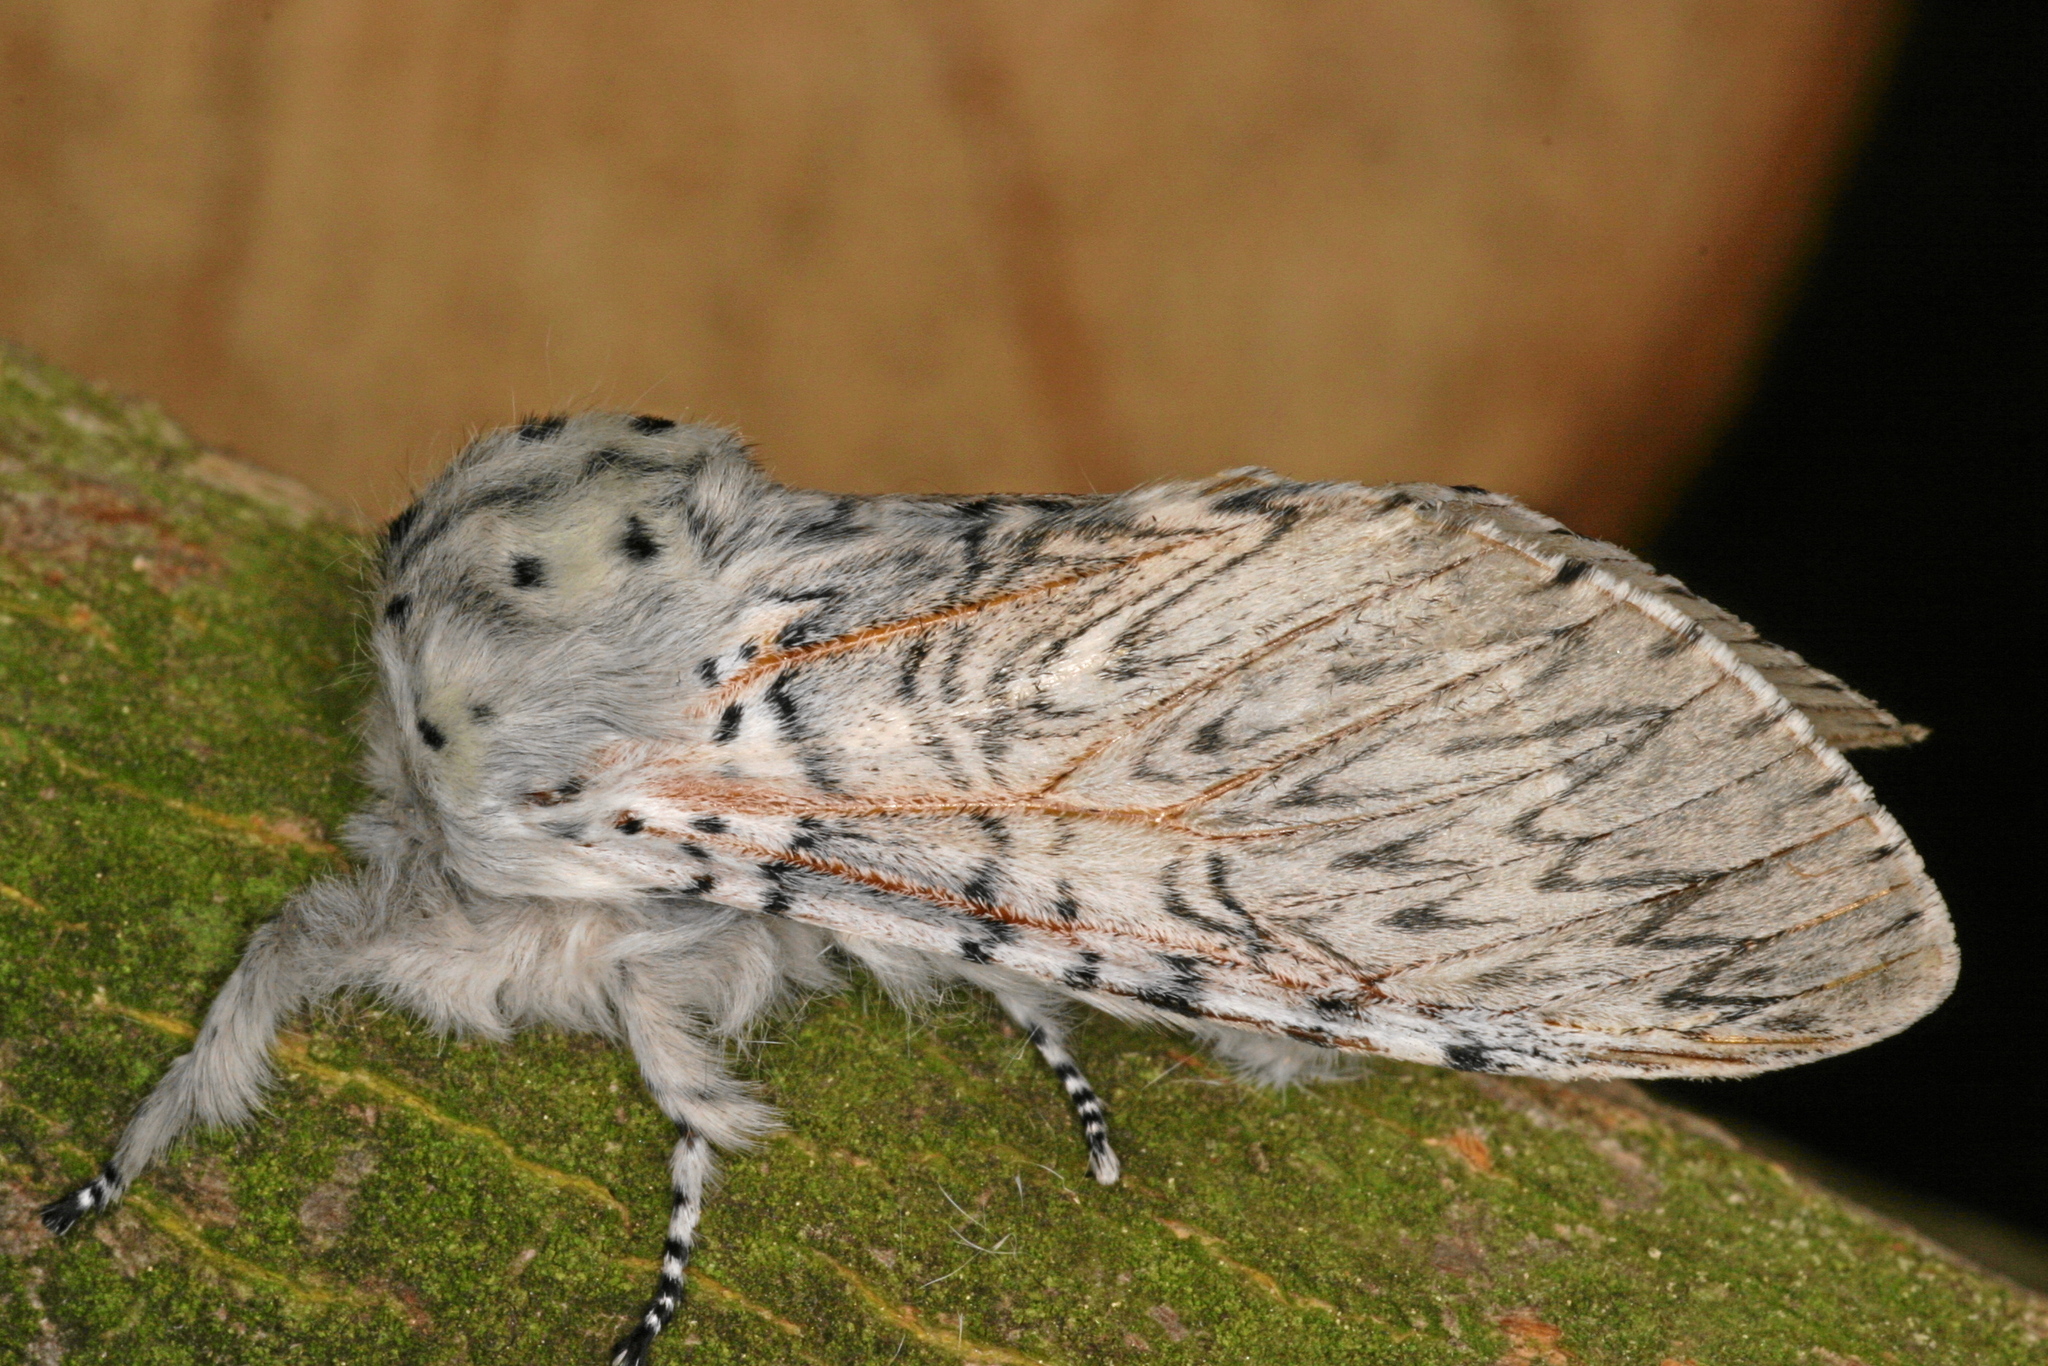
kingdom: Animalia
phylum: Arthropoda
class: Insecta
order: Lepidoptera
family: Notodontidae
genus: Cerura
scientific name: Cerura vinula
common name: Puss moth
